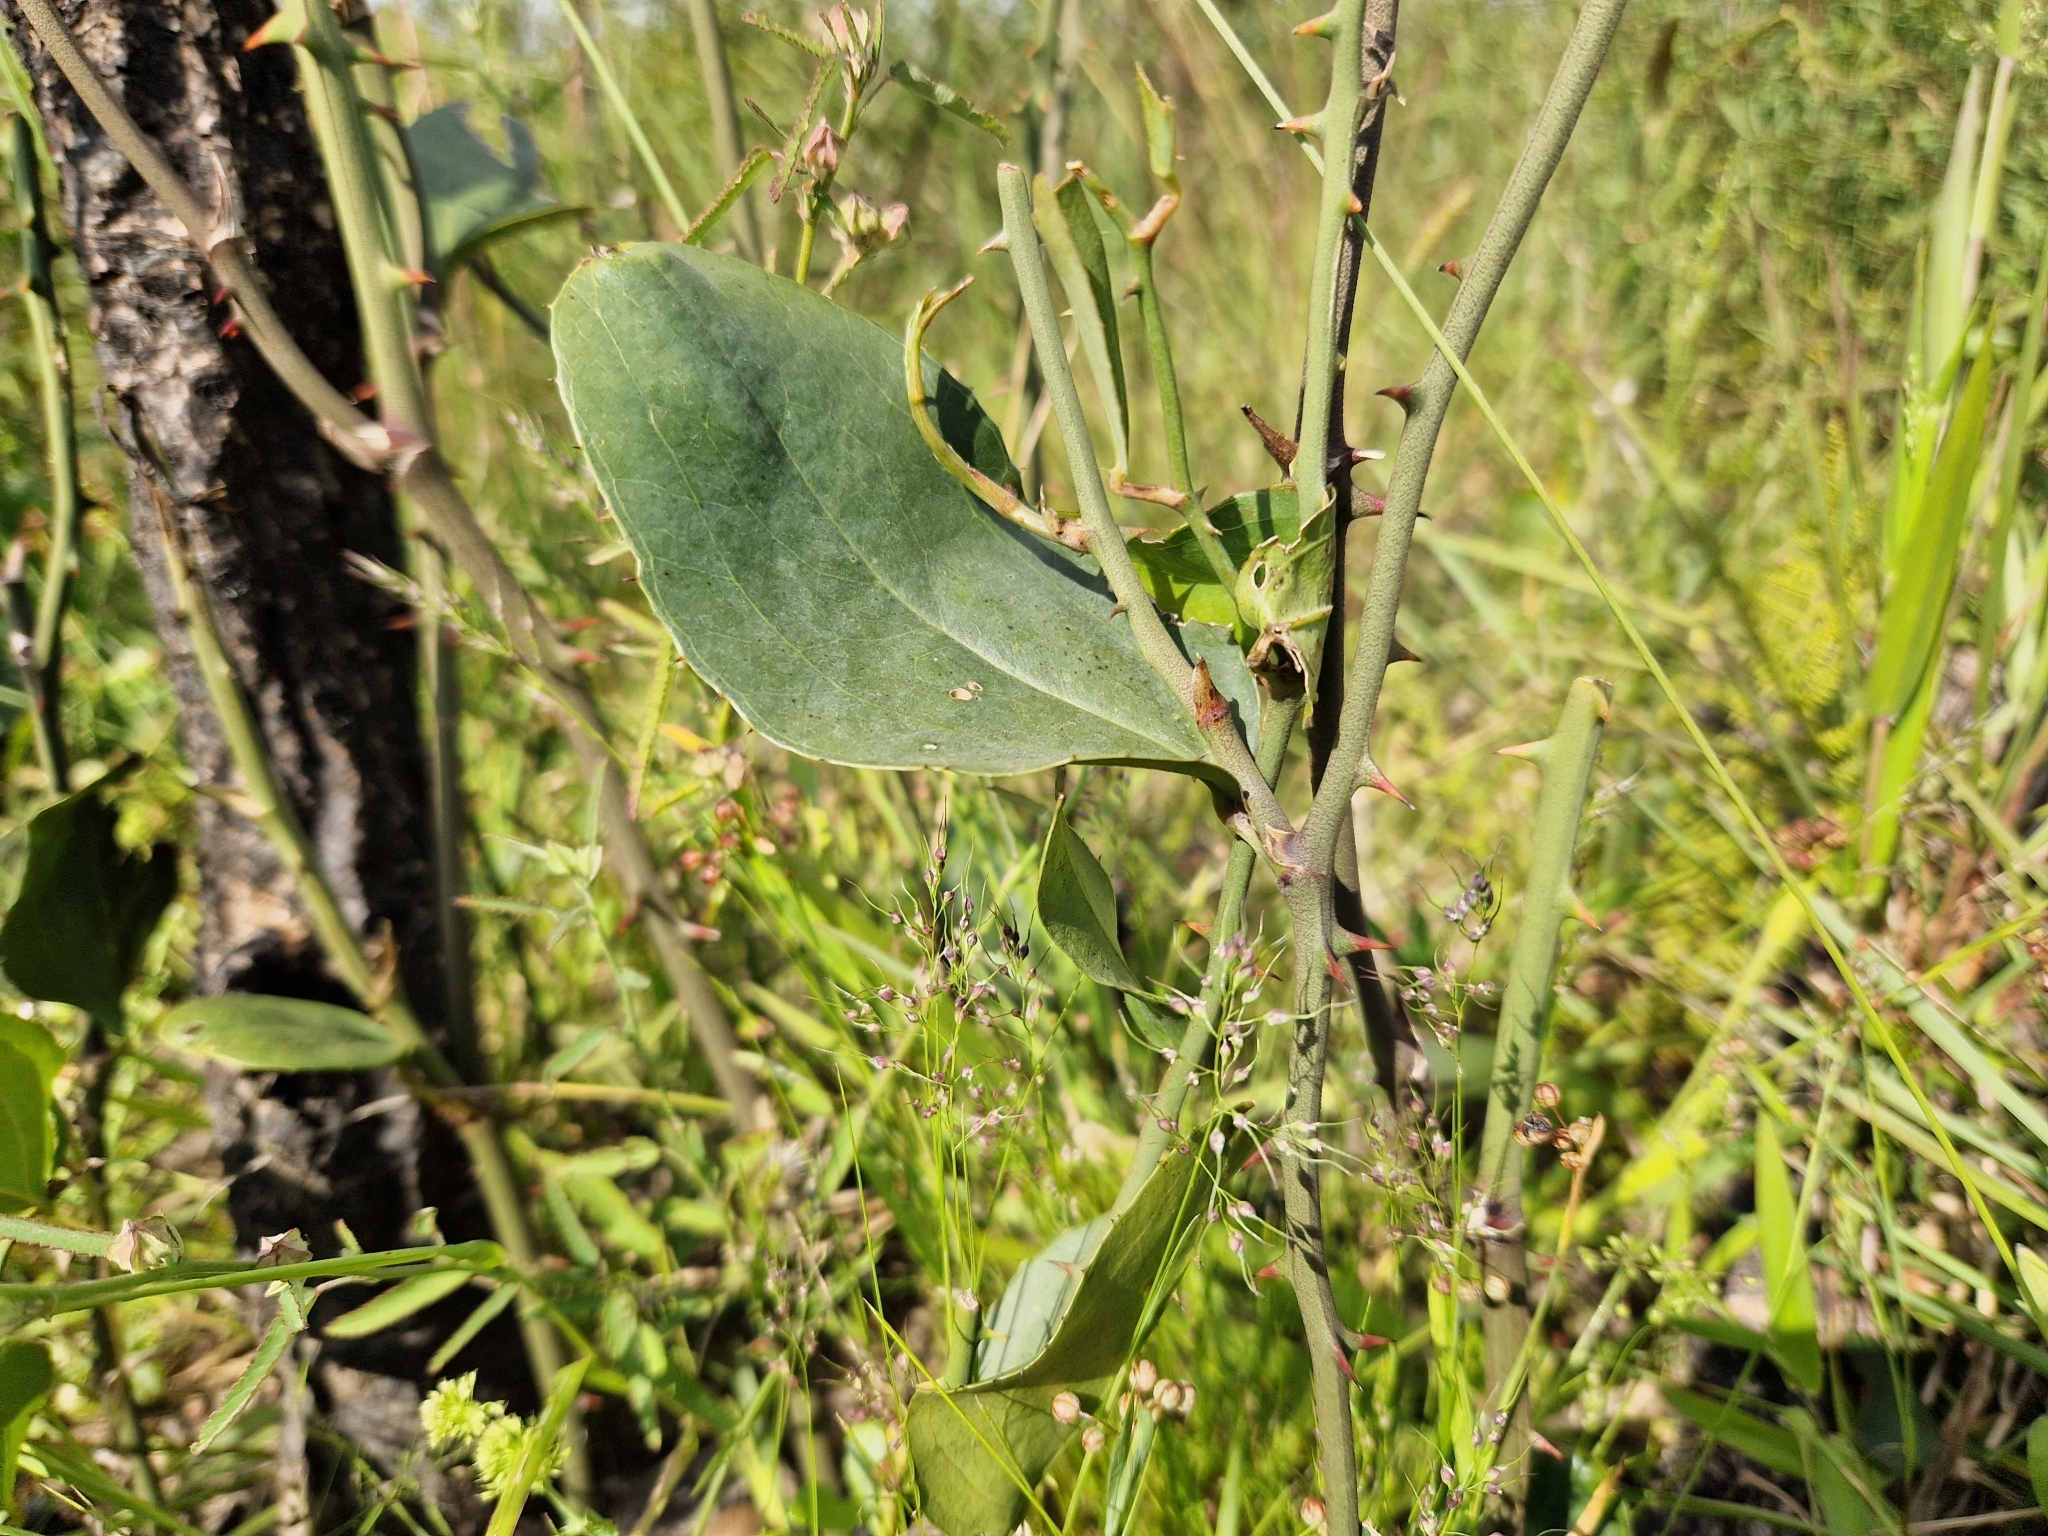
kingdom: Plantae
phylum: Tracheophyta
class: Liliopsida
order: Liliales
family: Smilacaceae
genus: Smilax
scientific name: Smilax campestris
